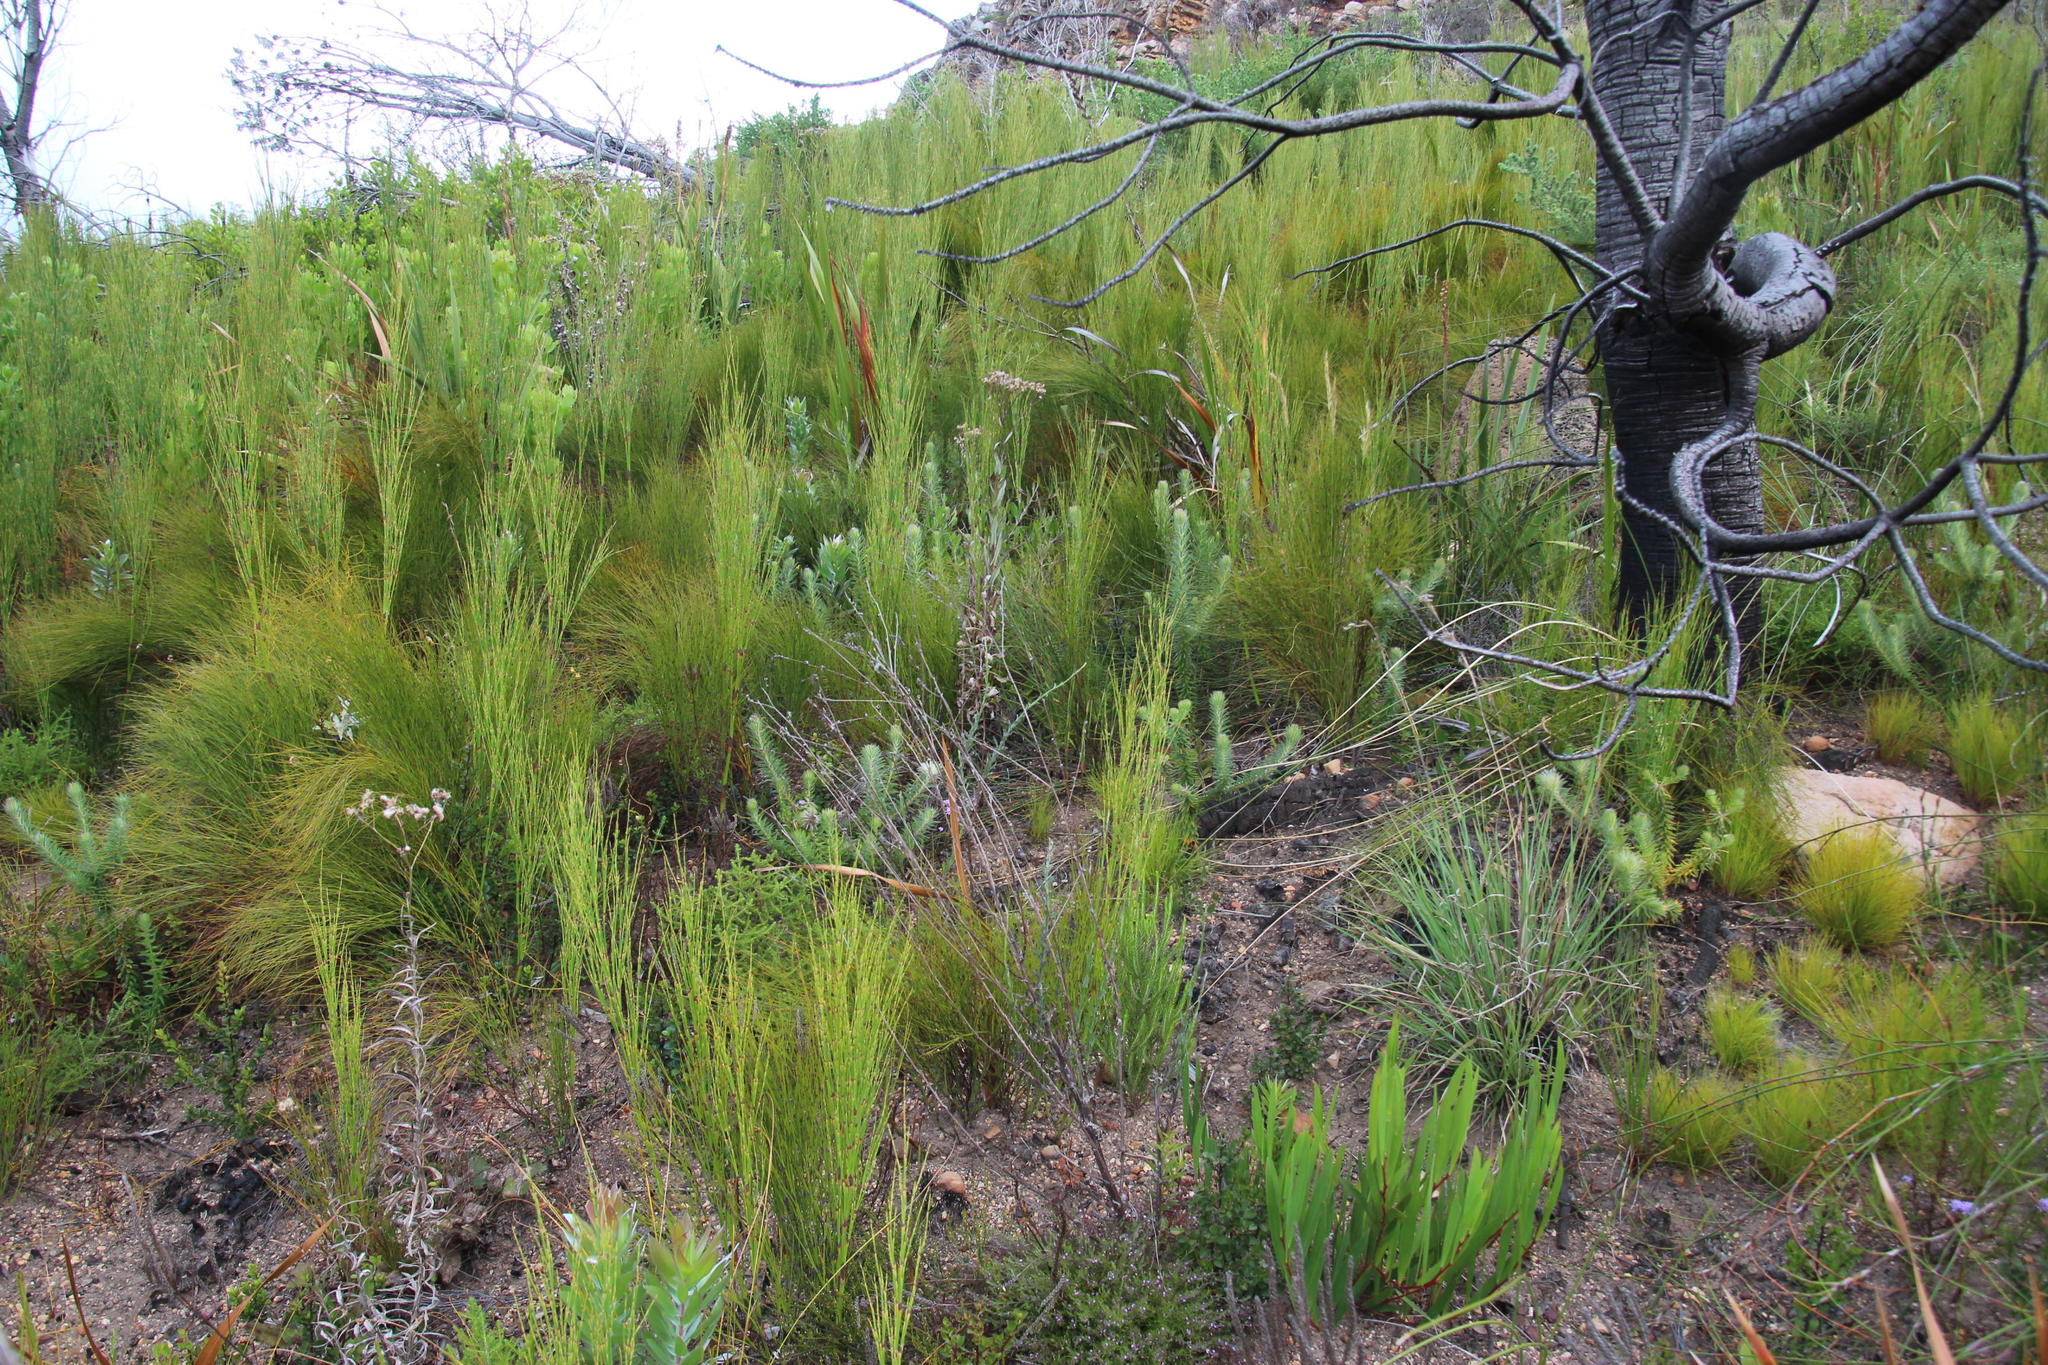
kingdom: Plantae
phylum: Tracheophyta
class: Liliopsida
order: Poales
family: Restionaceae
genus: Cannomois
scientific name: Cannomois virgata
